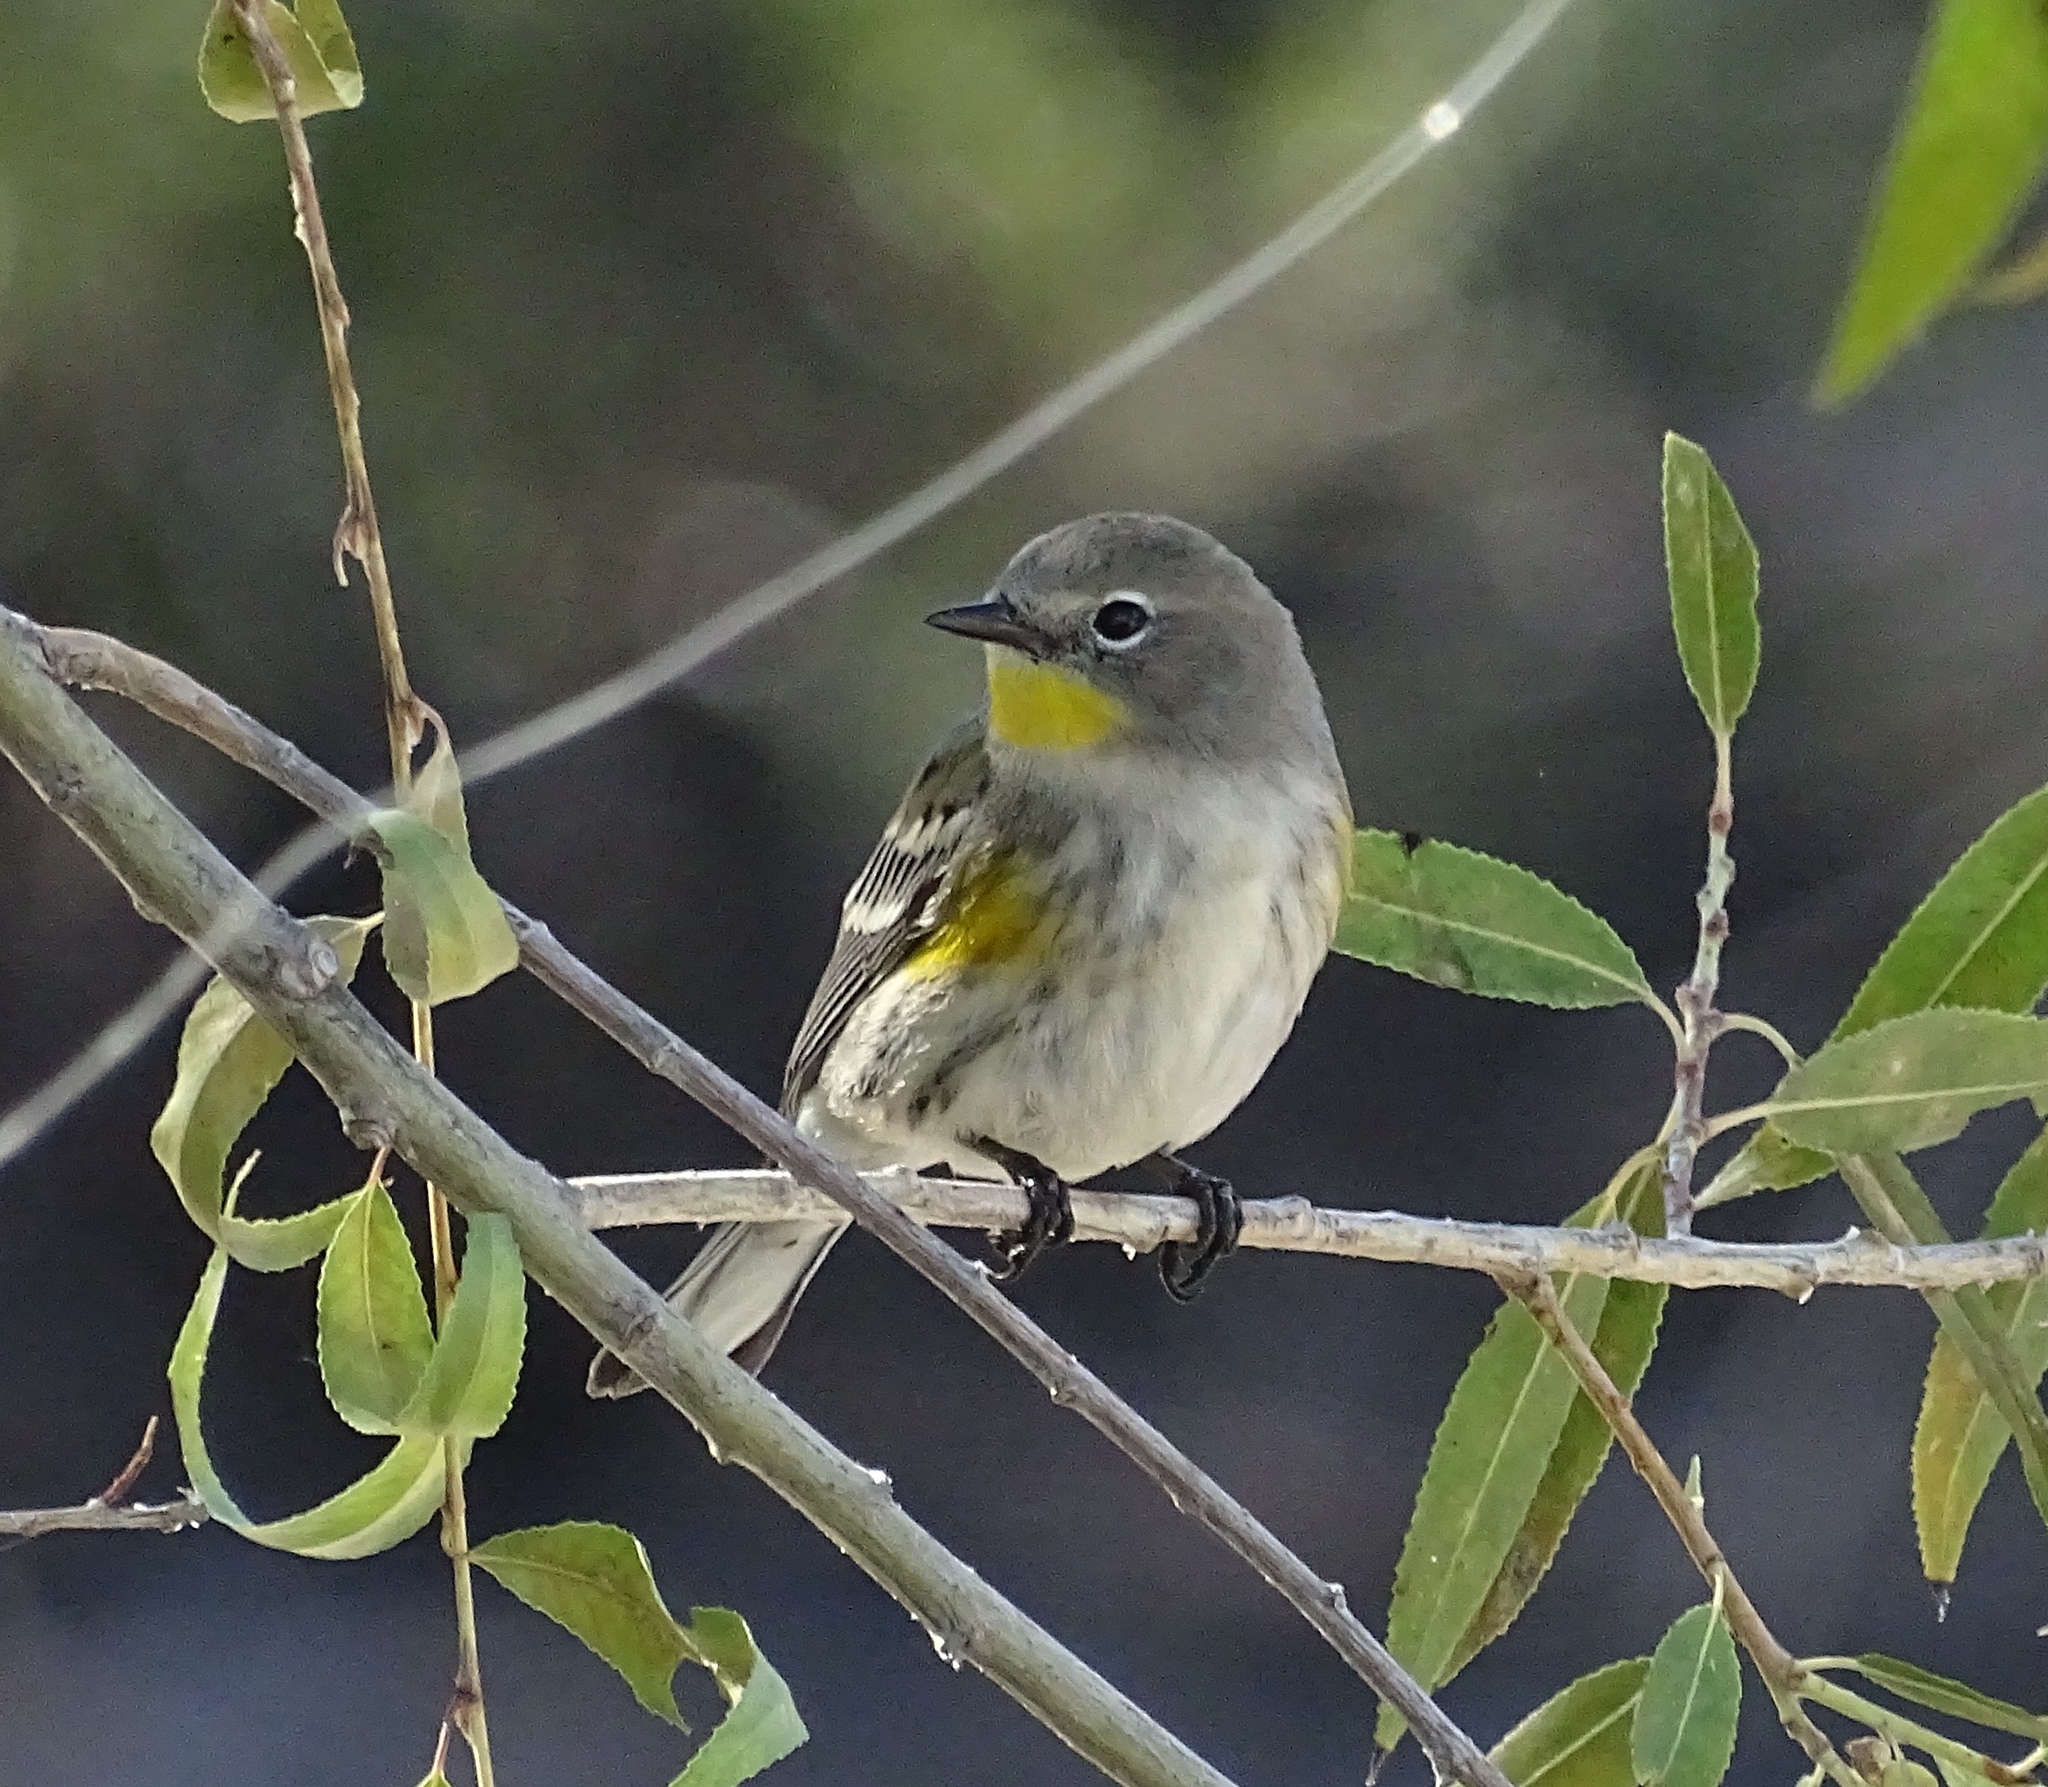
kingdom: Animalia
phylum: Chordata
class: Aves
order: Passeriformes
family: Parulidae
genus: Setophaga
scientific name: Setophaga auduboni
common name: Audubon's warbler
